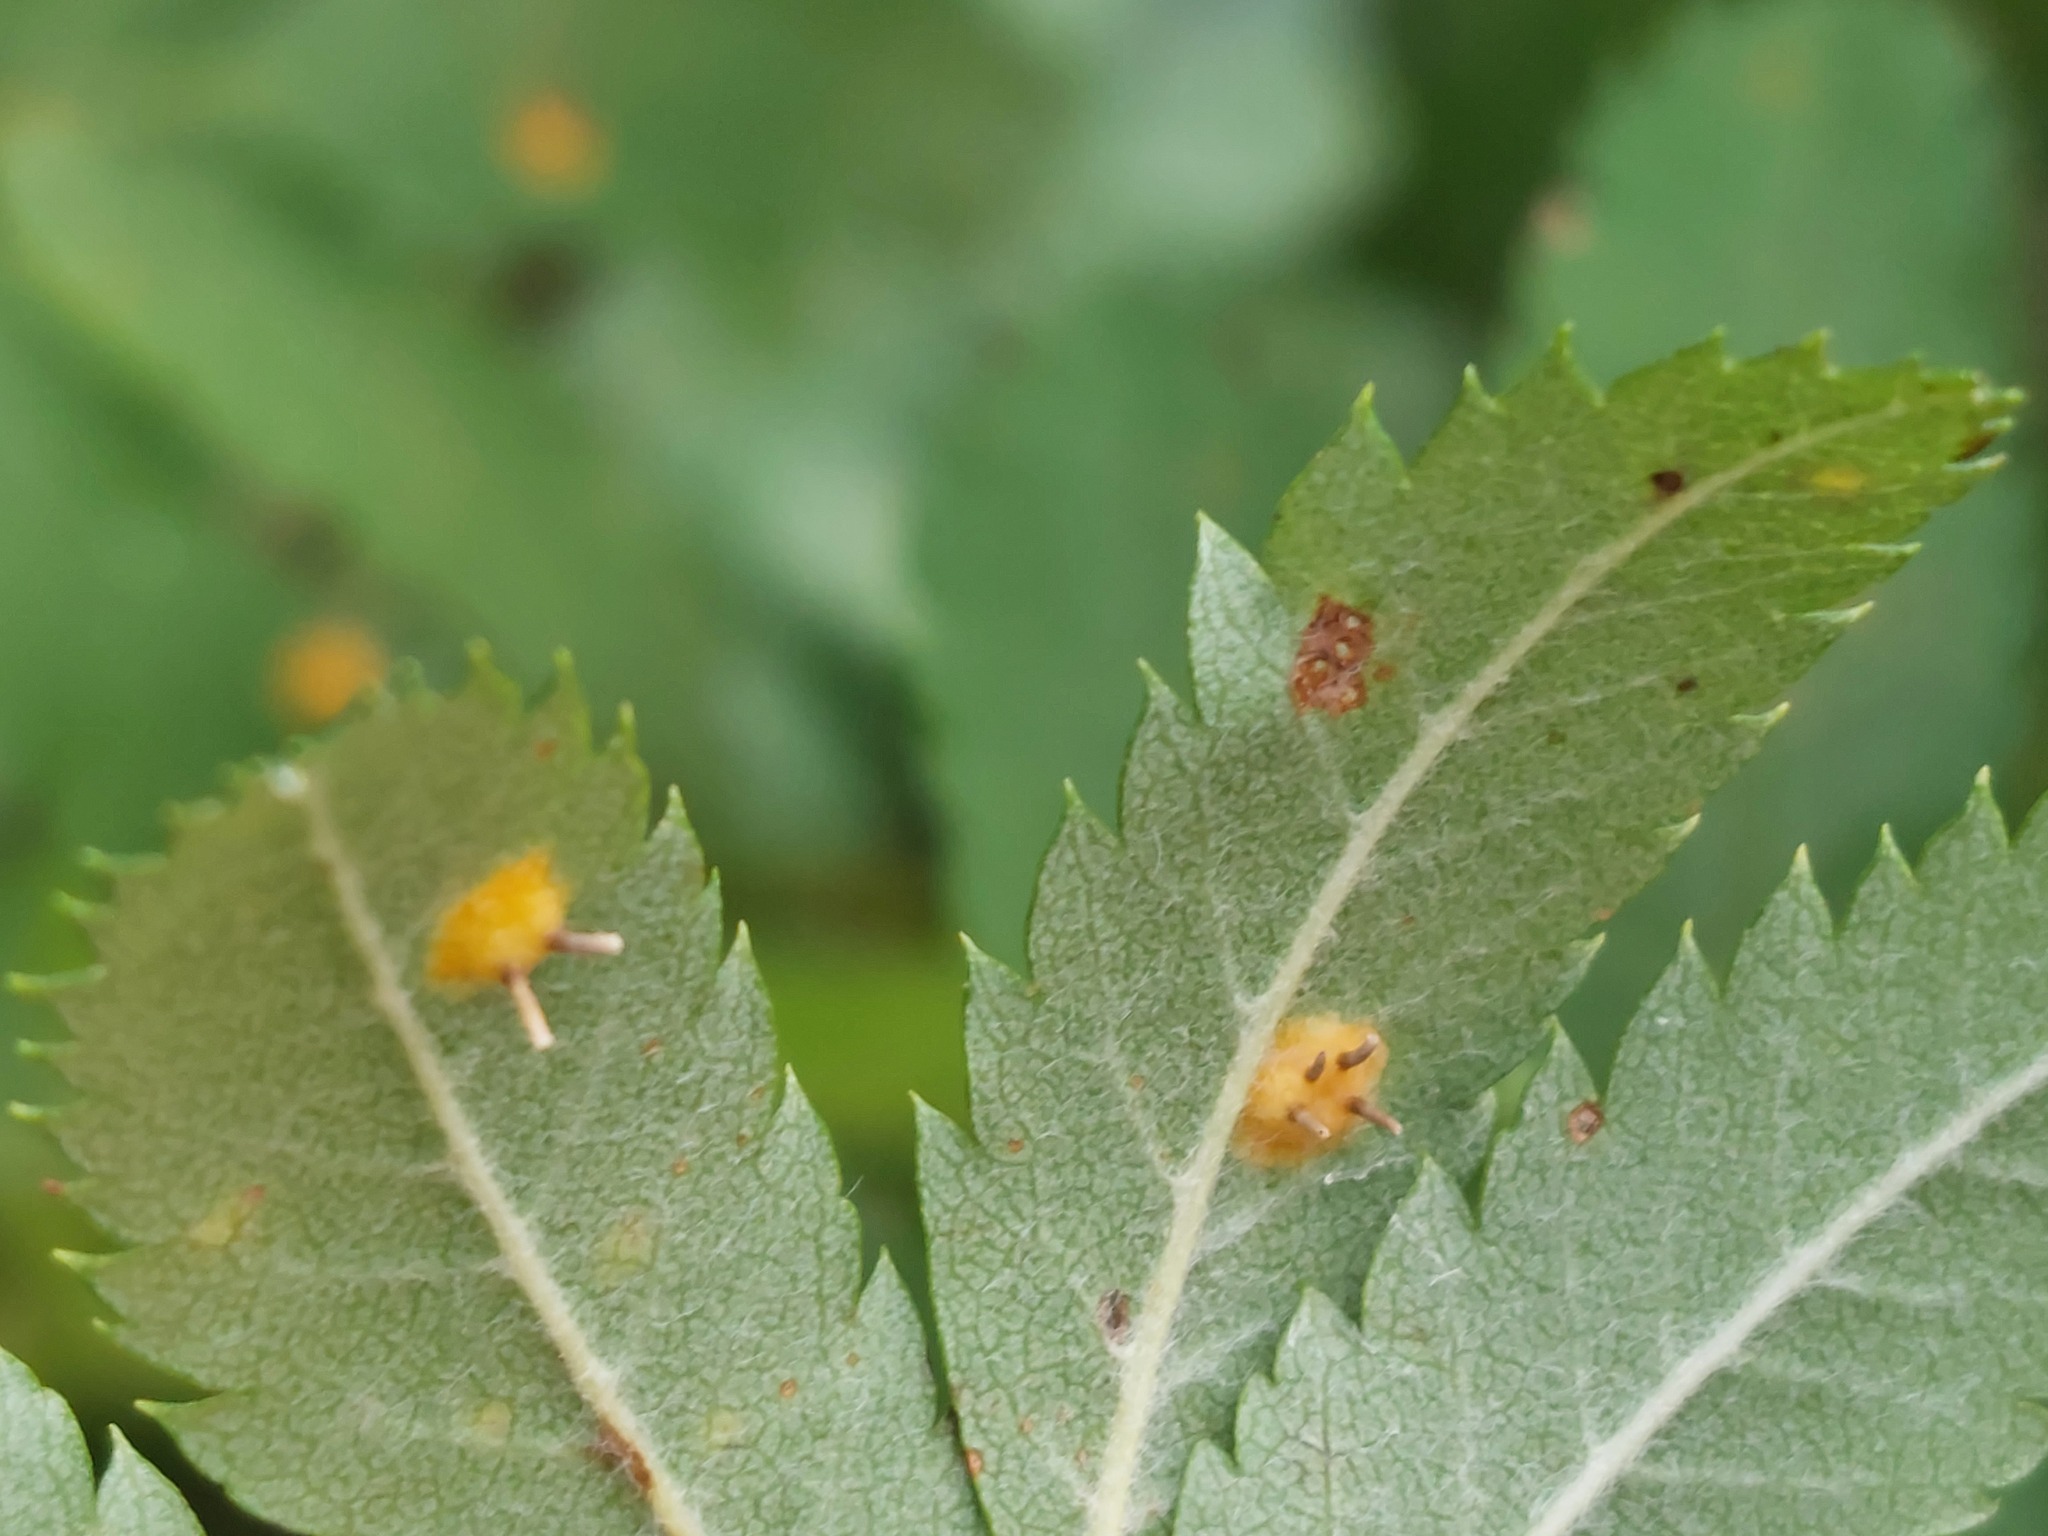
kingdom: Fungi
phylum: Basidiomycota
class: Pucciniomycetes
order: Pucciniales
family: Gymnosporangiaceae
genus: Gymnosporangium
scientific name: Gymnosporangium cornutum
